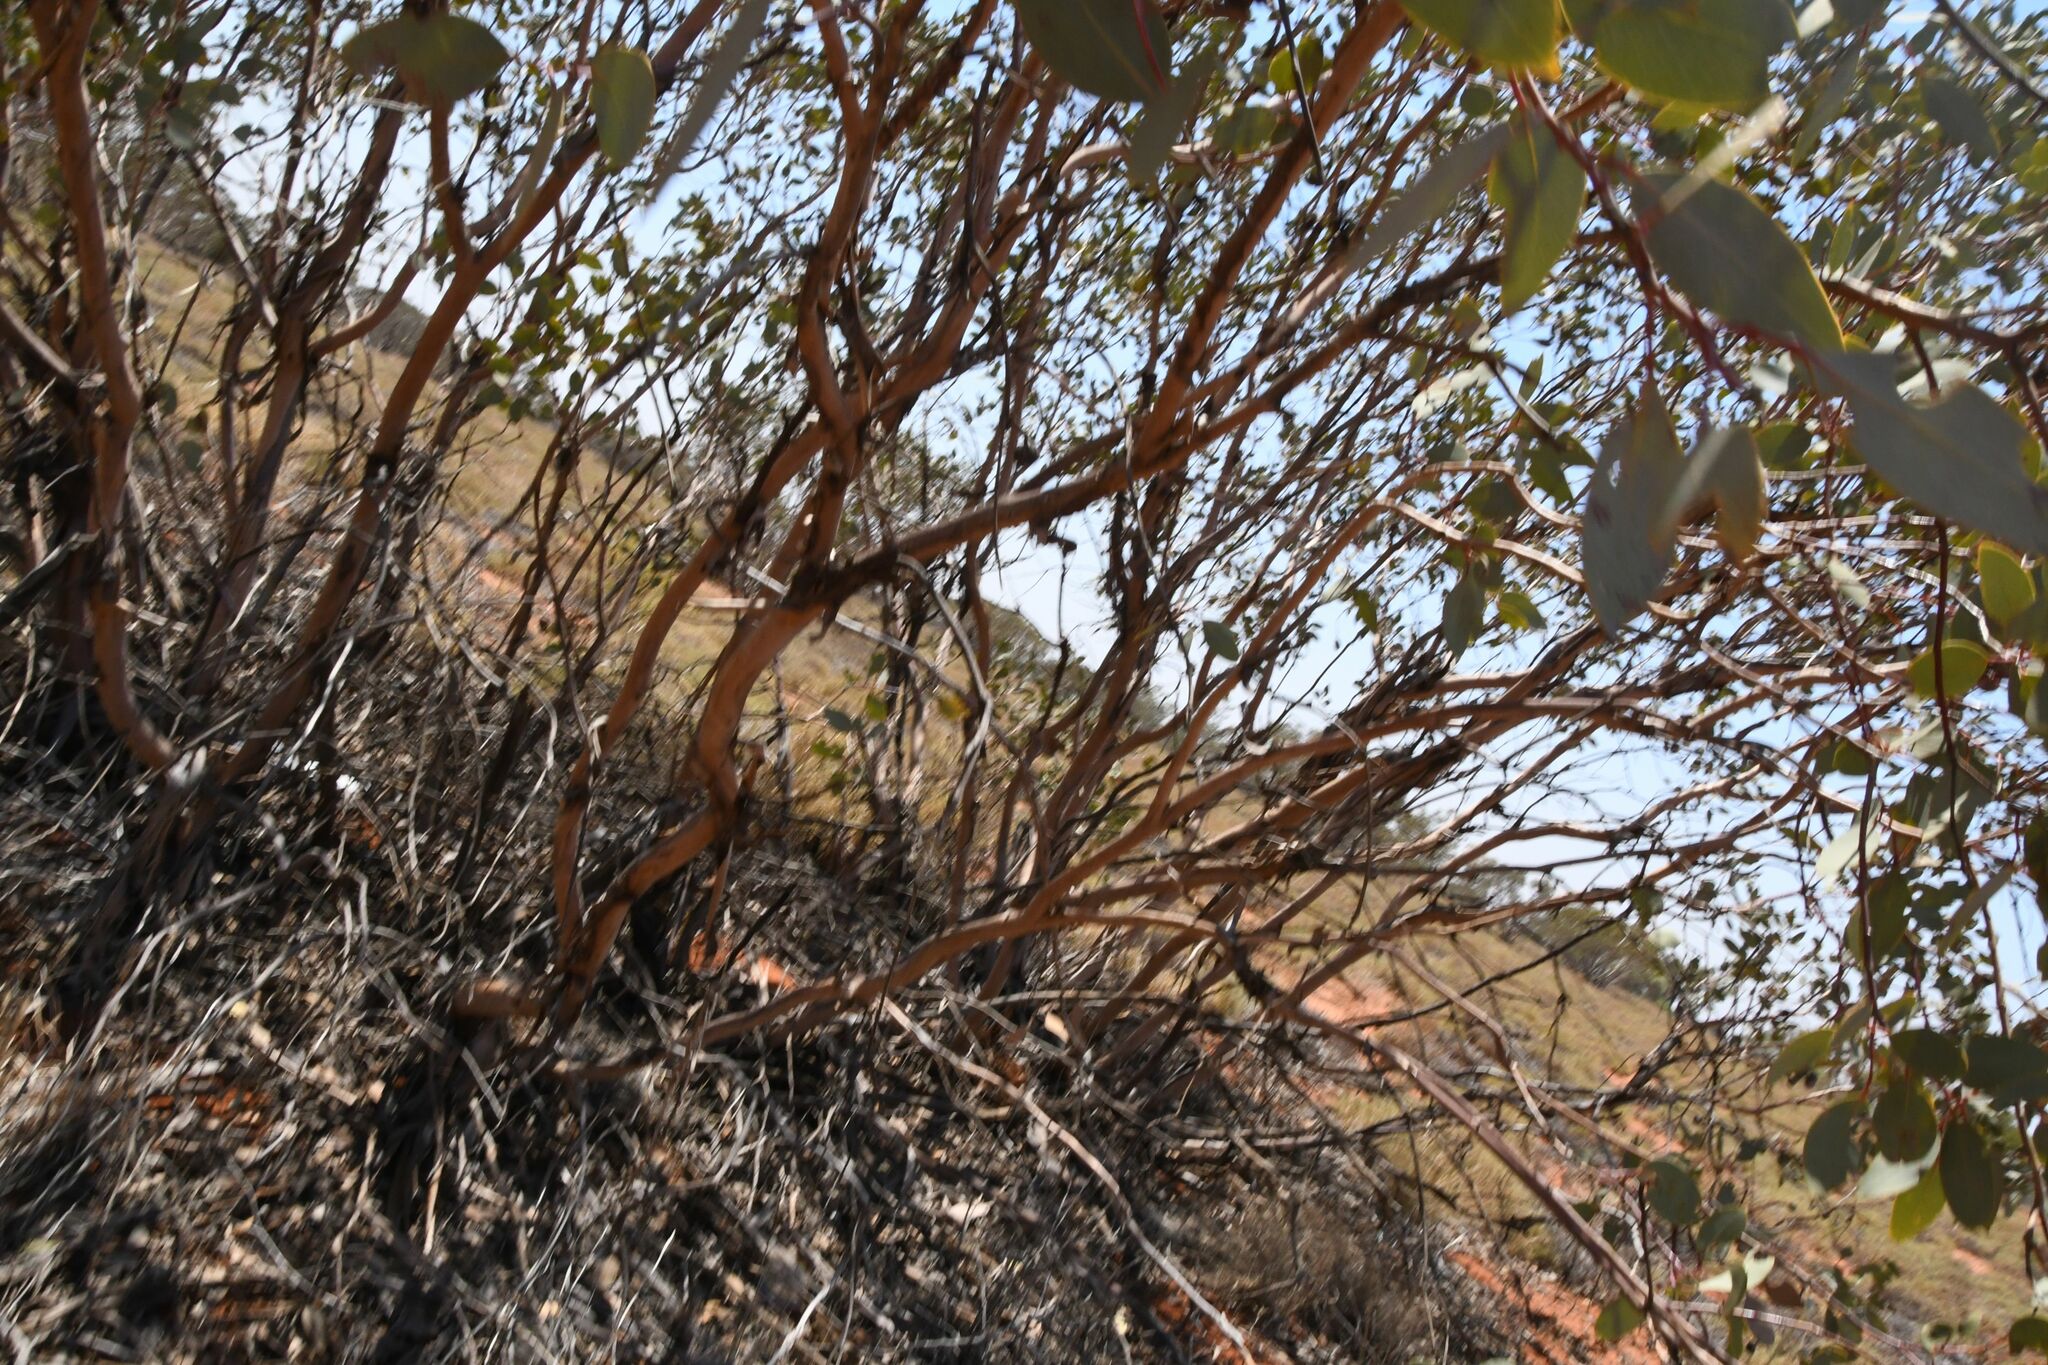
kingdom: Plantae
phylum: Tracheophyta
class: Magnoliopsida
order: Myrtales
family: Myrtaceae
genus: Eucalyptus
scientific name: Eucalyptus trivalva
